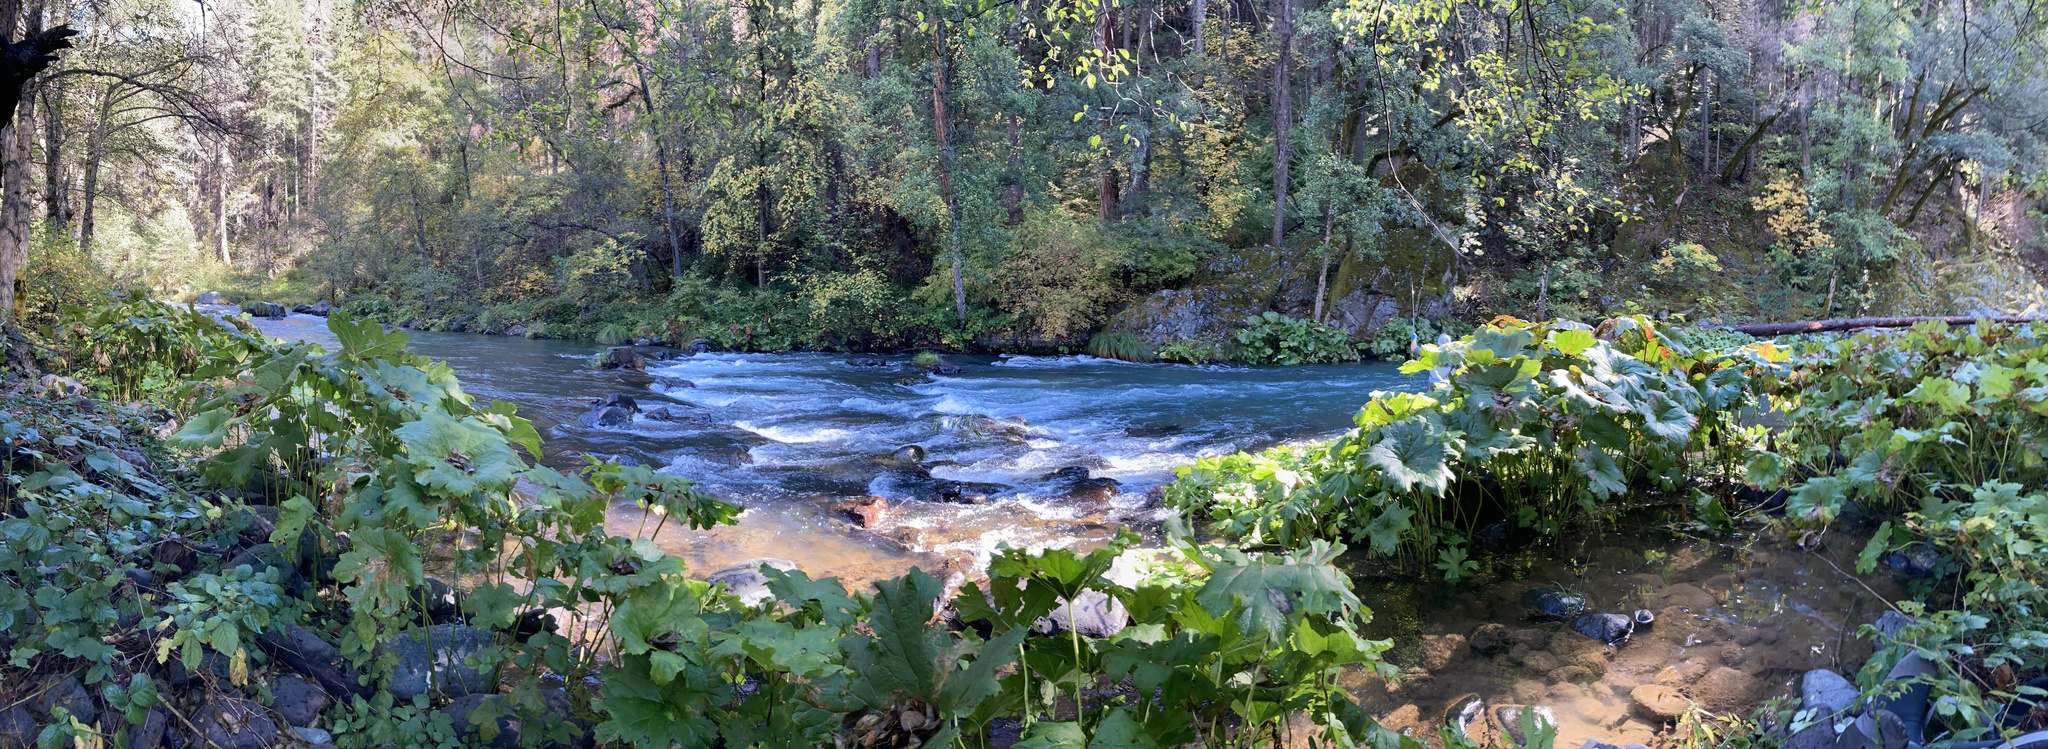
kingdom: Plantae
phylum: Tracheophyta
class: Magnoliopsida
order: Saxifragales
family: Saxifragaceae
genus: Darmera
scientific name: Darmera peltata
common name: Indian-rhubarb
